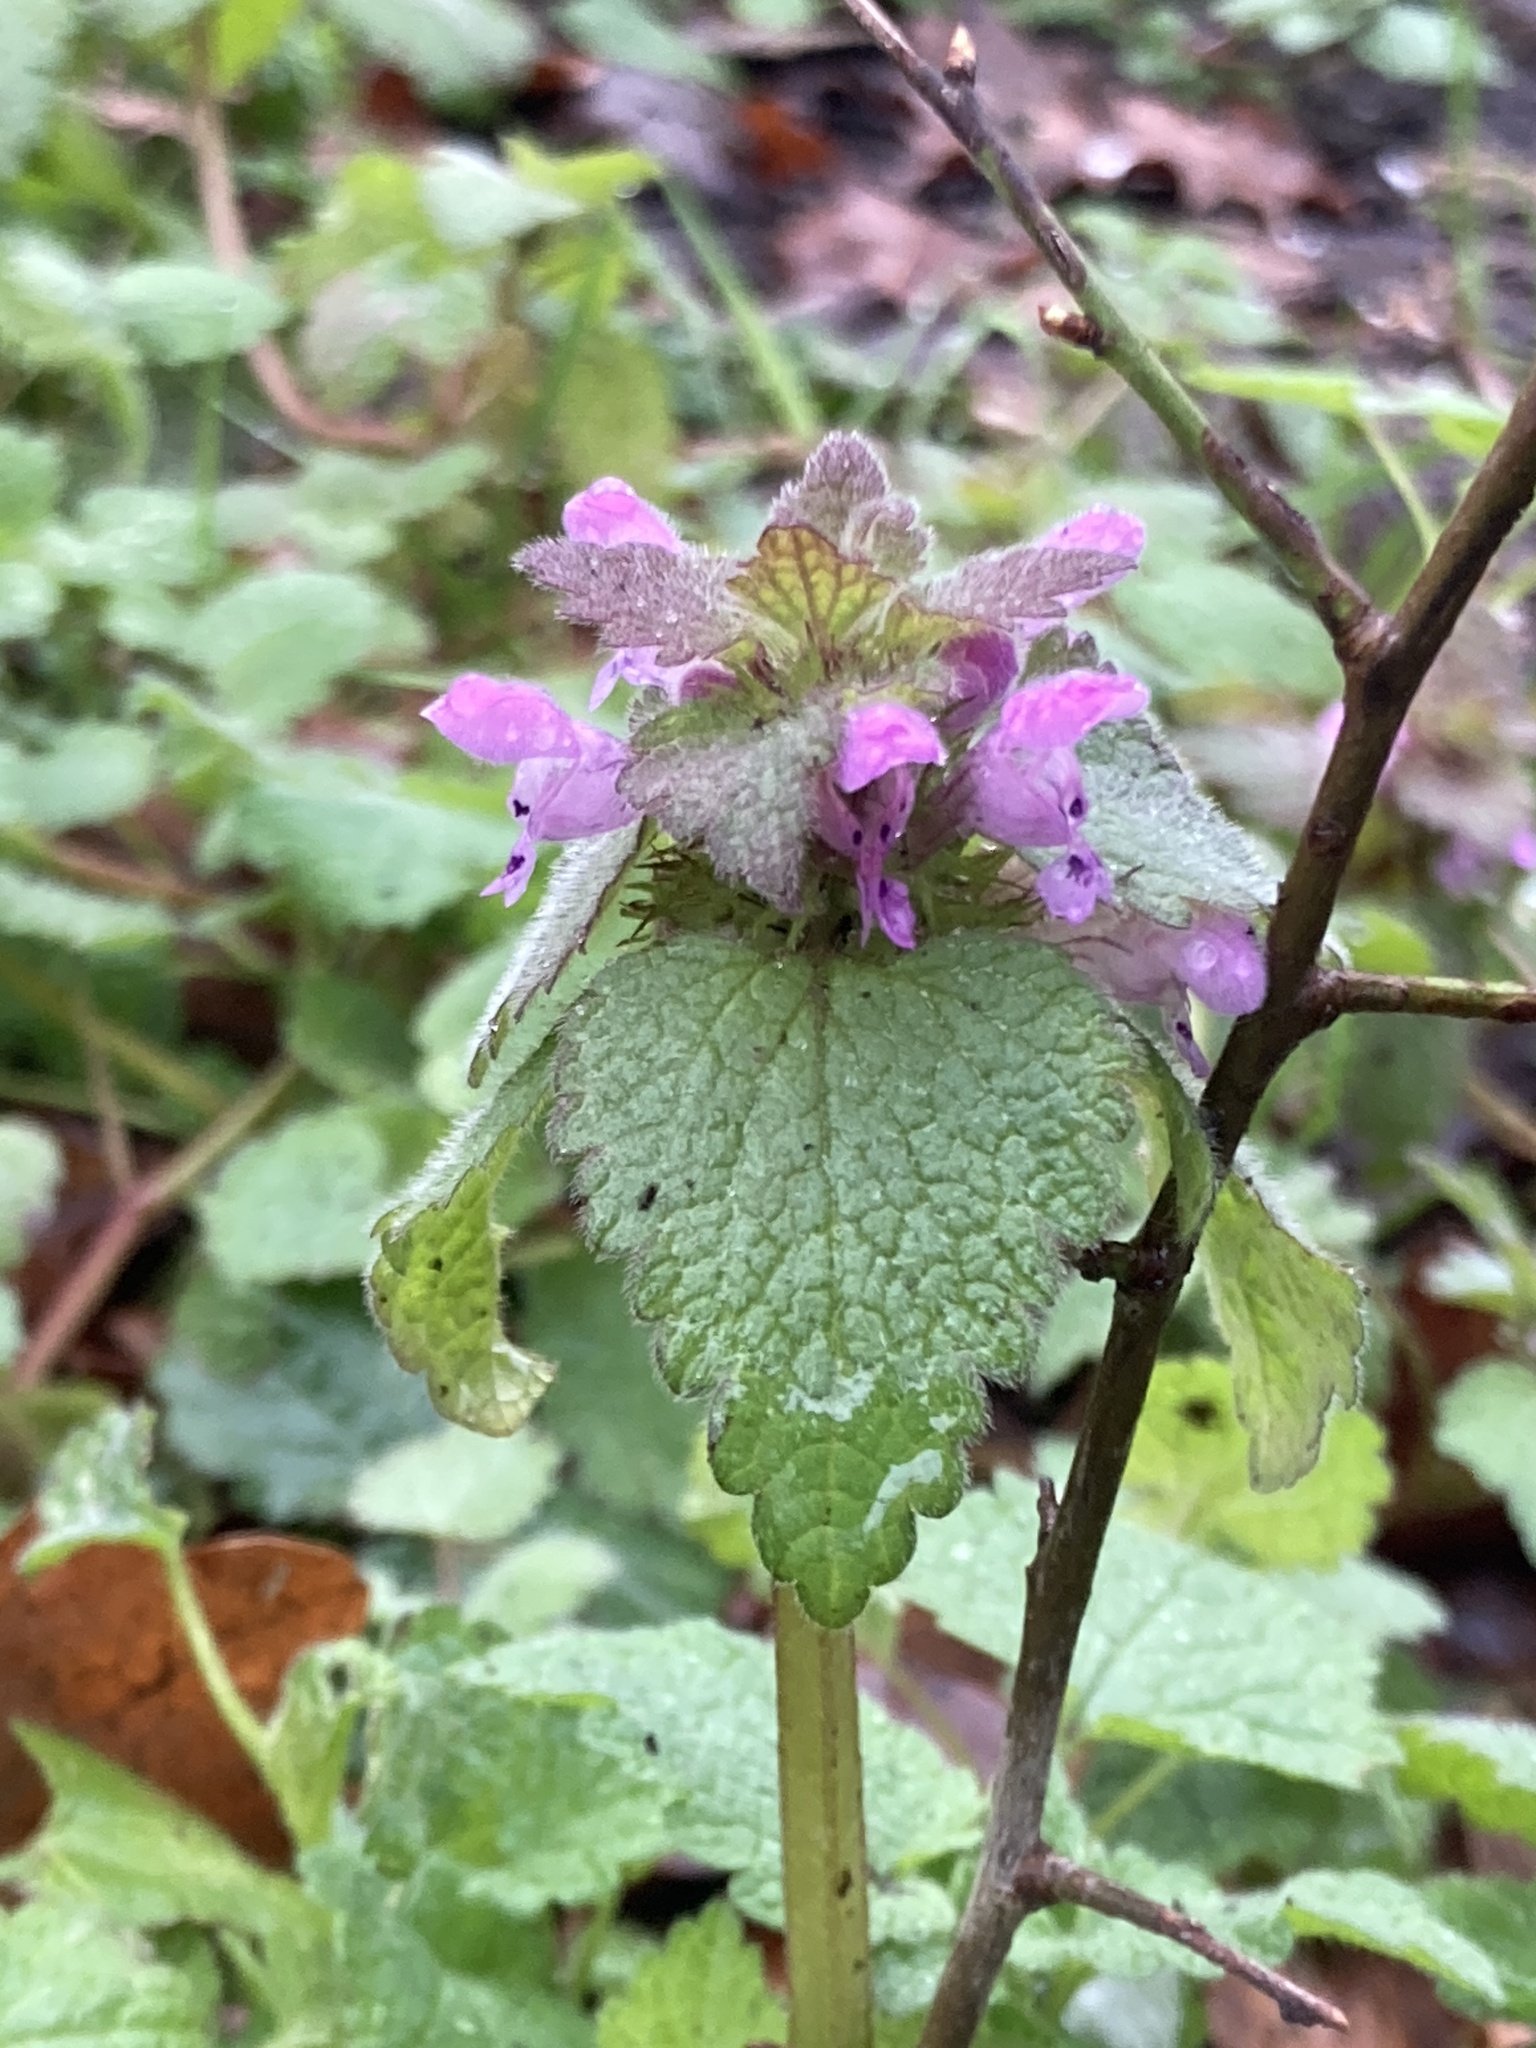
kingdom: Plantae
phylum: Tracheophyta
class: Magnoliopsida
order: Lamiales
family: Lamiaceae
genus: Lamium
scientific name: Lamium purpureum
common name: Red dead-nettle
